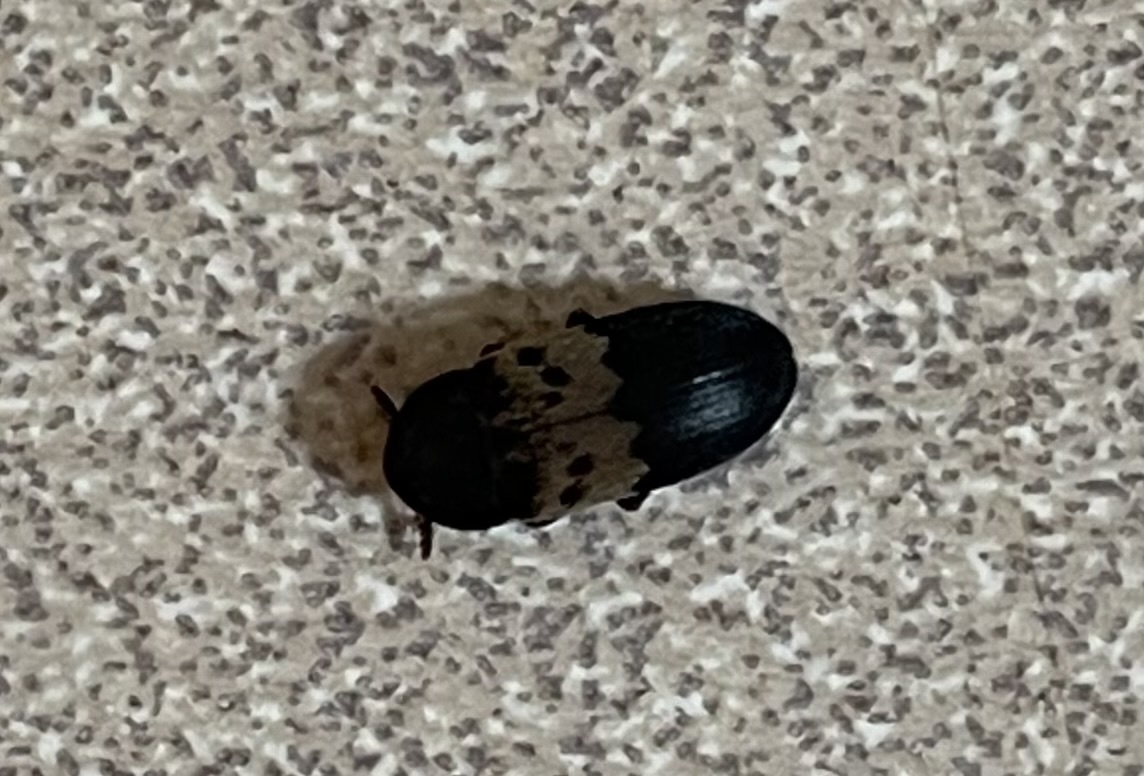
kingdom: Animalia
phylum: Arthropoda
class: Insecta
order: Coleoptera
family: Dermestidae
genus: Dermestes
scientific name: Dermestes lardarius
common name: Larder beetle
